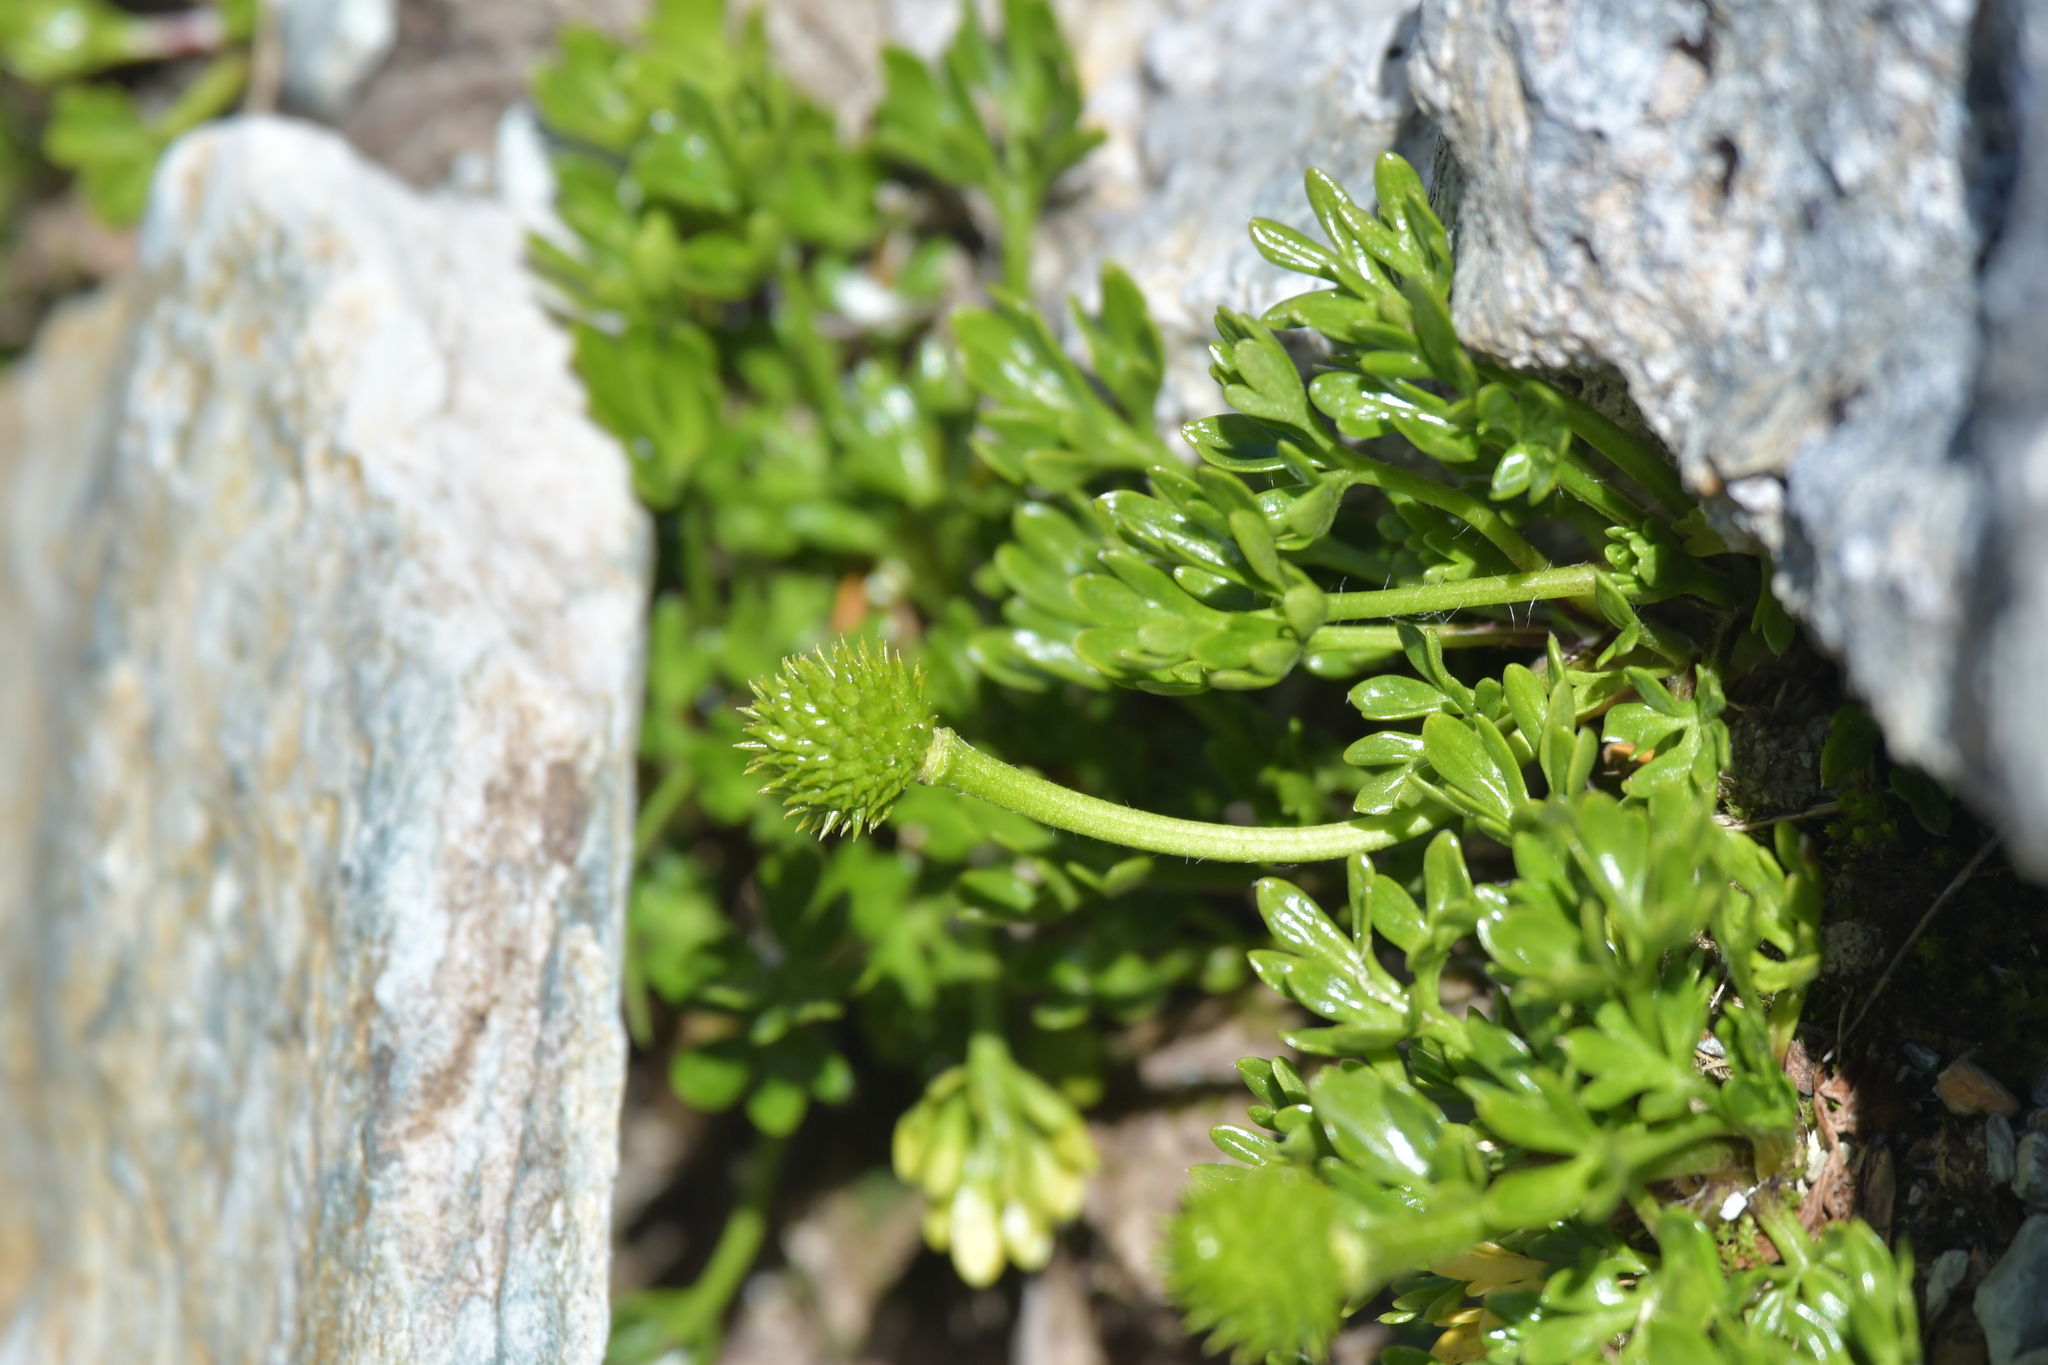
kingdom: Plantae
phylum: Tracheophyta
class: Magnoliopsida
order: Ranunculales
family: Ranunculaceae
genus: Ranunculus
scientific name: Ranunculus sericophyllus
